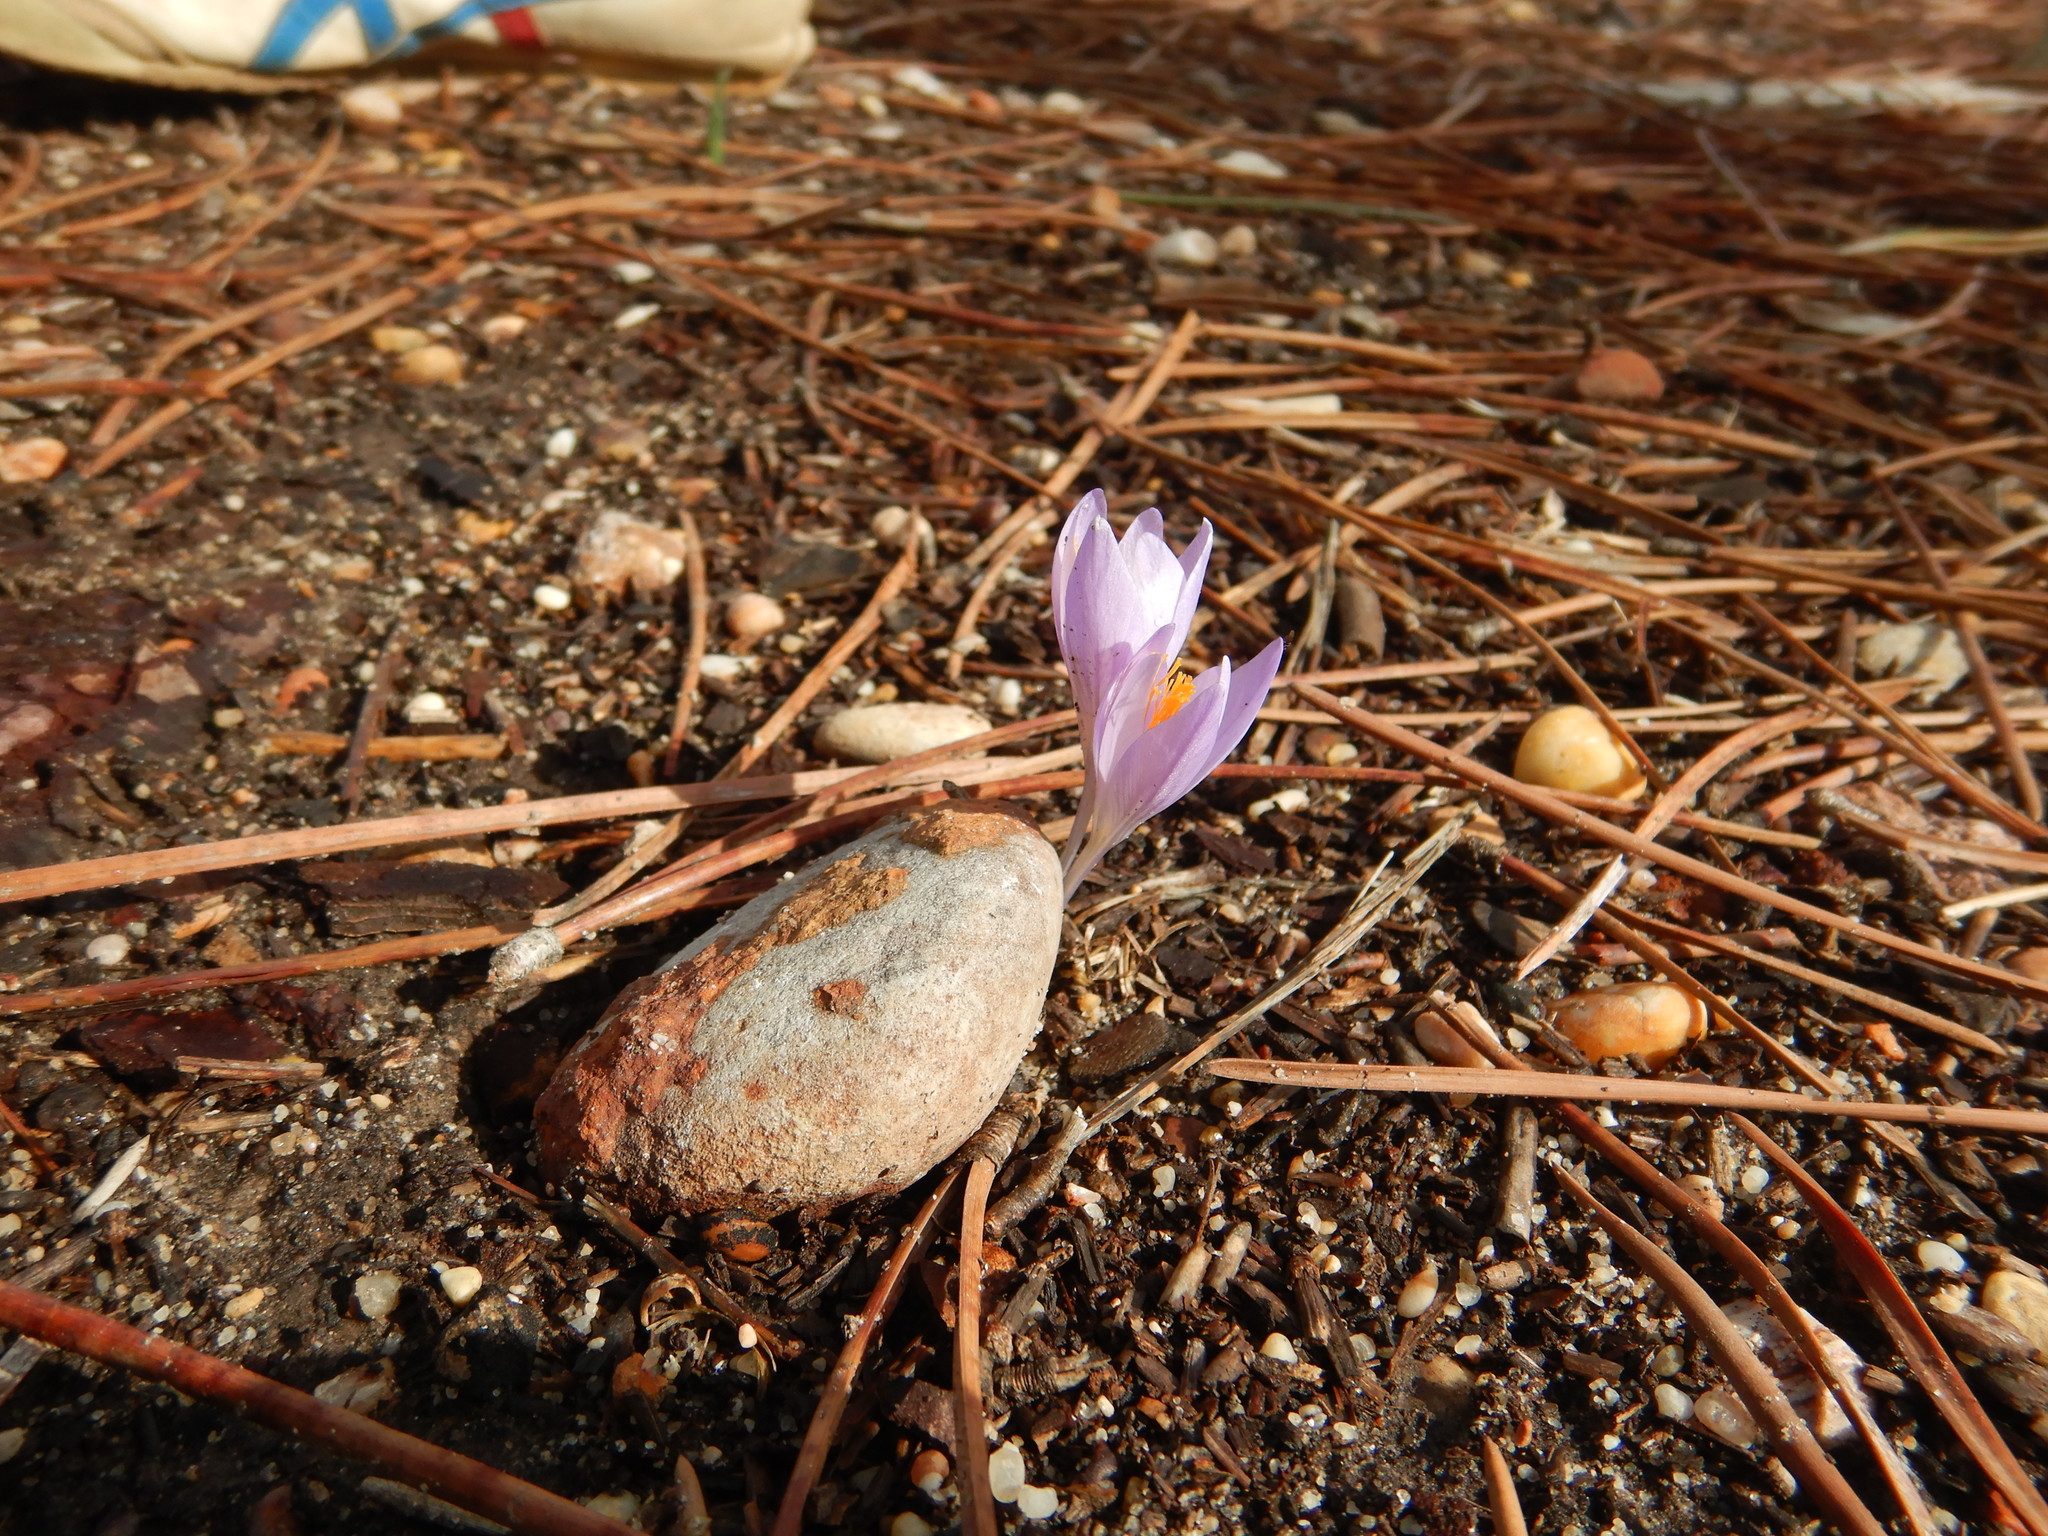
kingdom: Plantae
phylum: Tracheophyta
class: Liliopsida
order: Asparagales
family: Iridaceae
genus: Crocus
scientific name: Crocus serotinus
